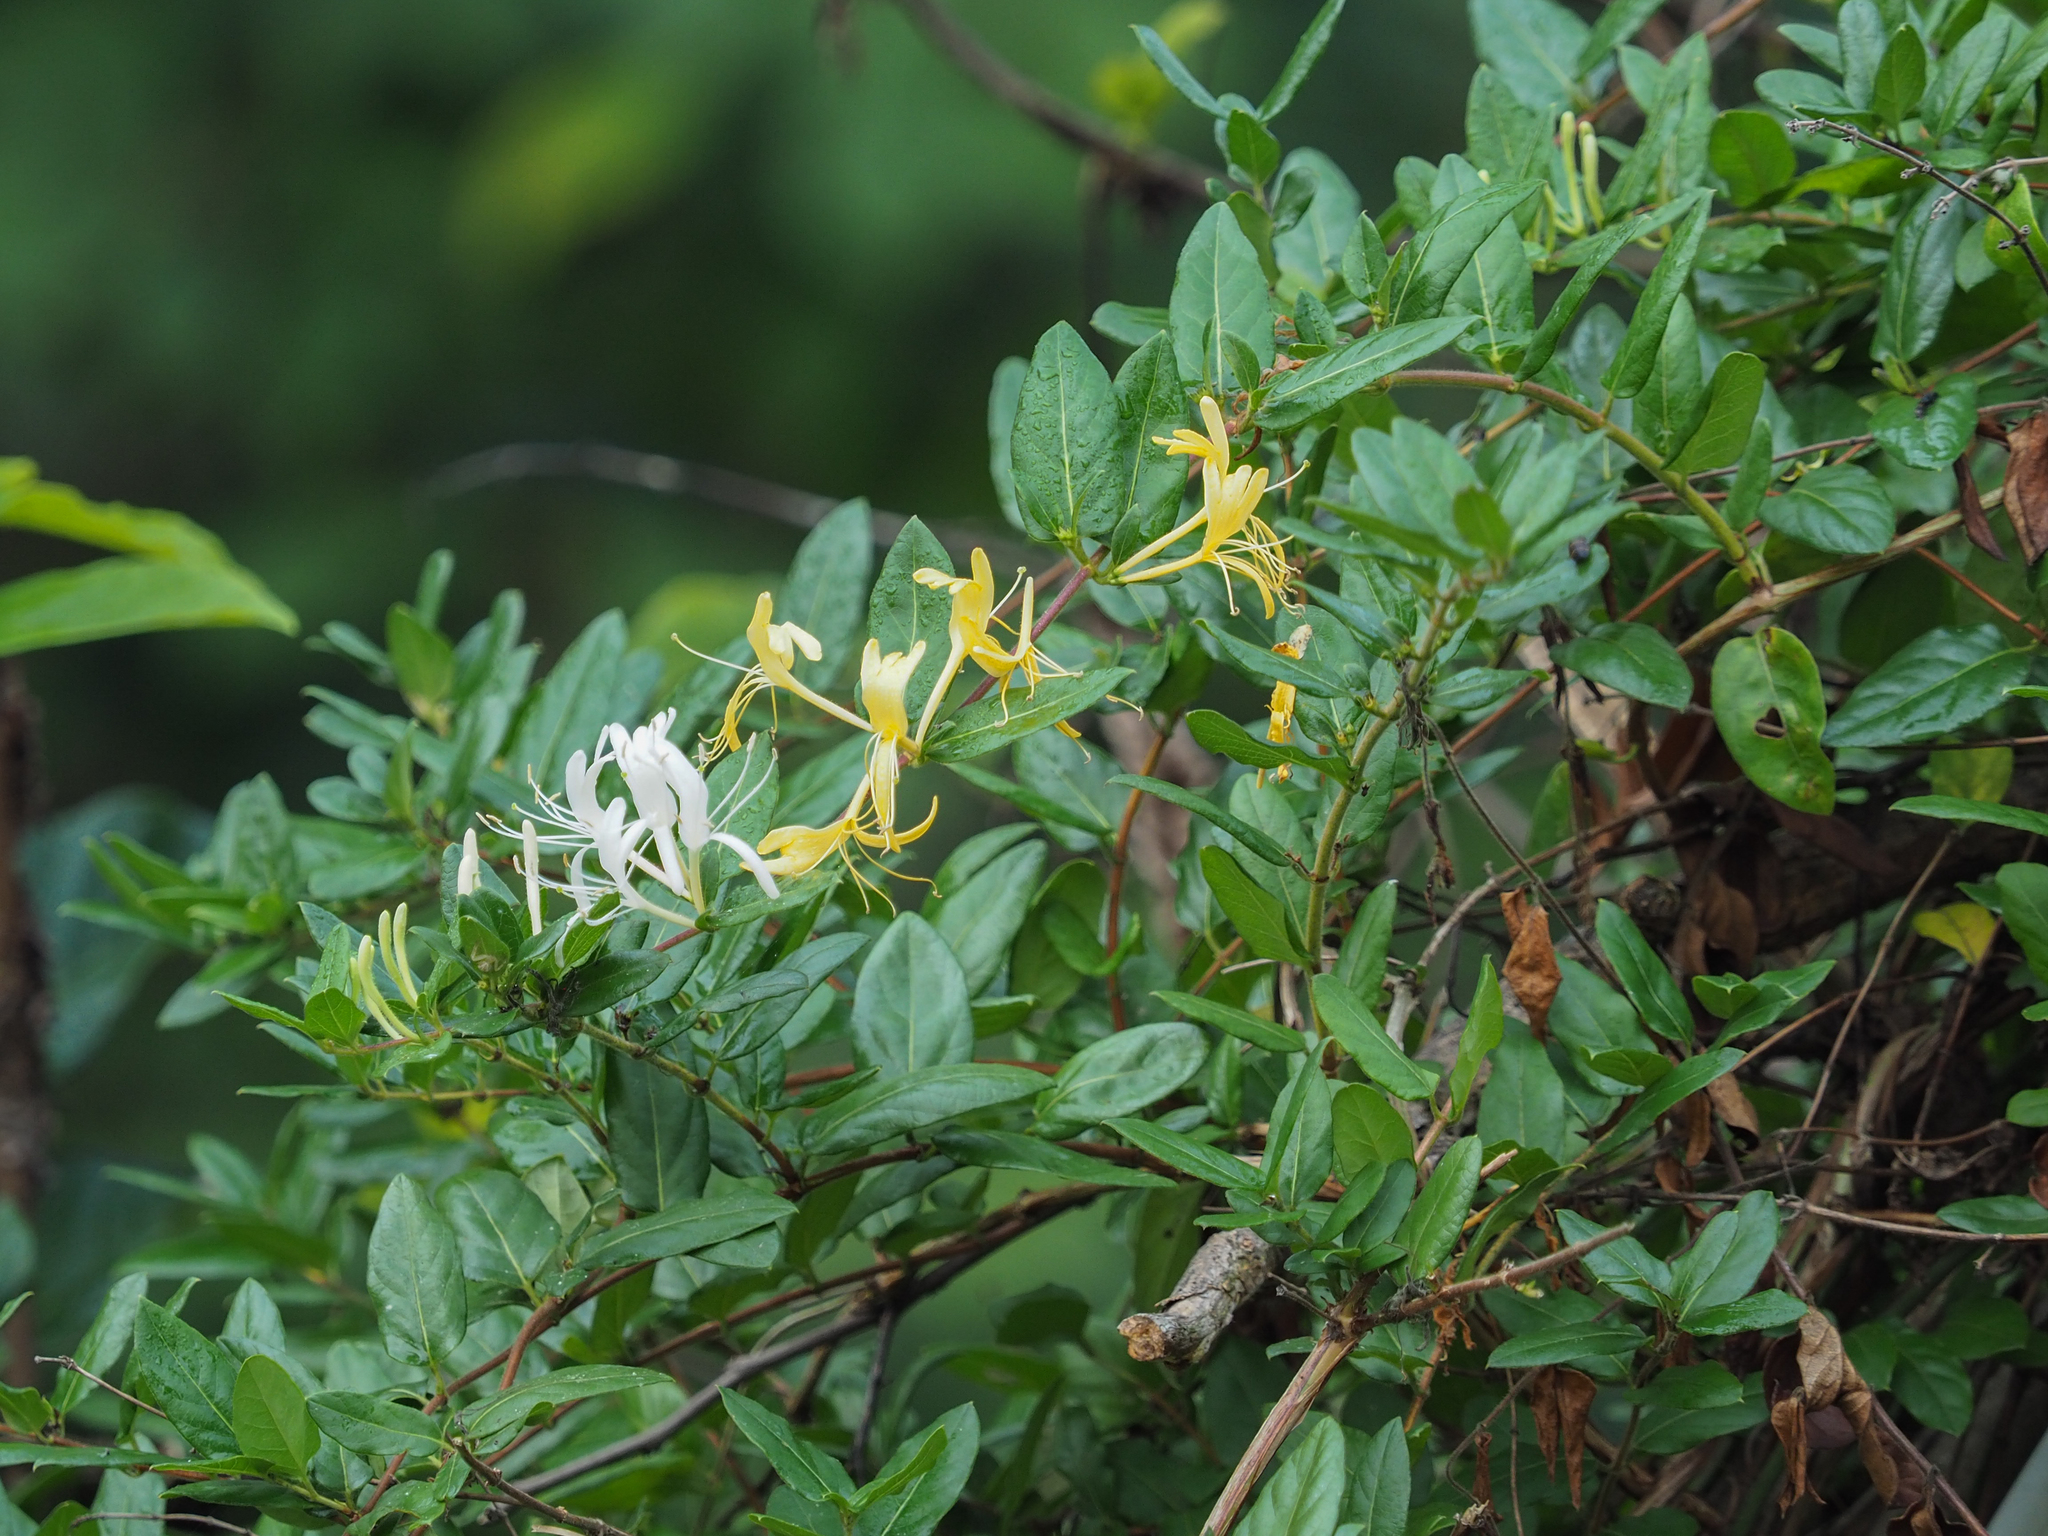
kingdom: Plantae
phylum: Tracheophyta
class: Magnoliopsida
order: Dipsacales
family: Caprifoliaceae
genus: Lonicera
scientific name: Lonicera japonica
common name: Japanese honeysuckle
